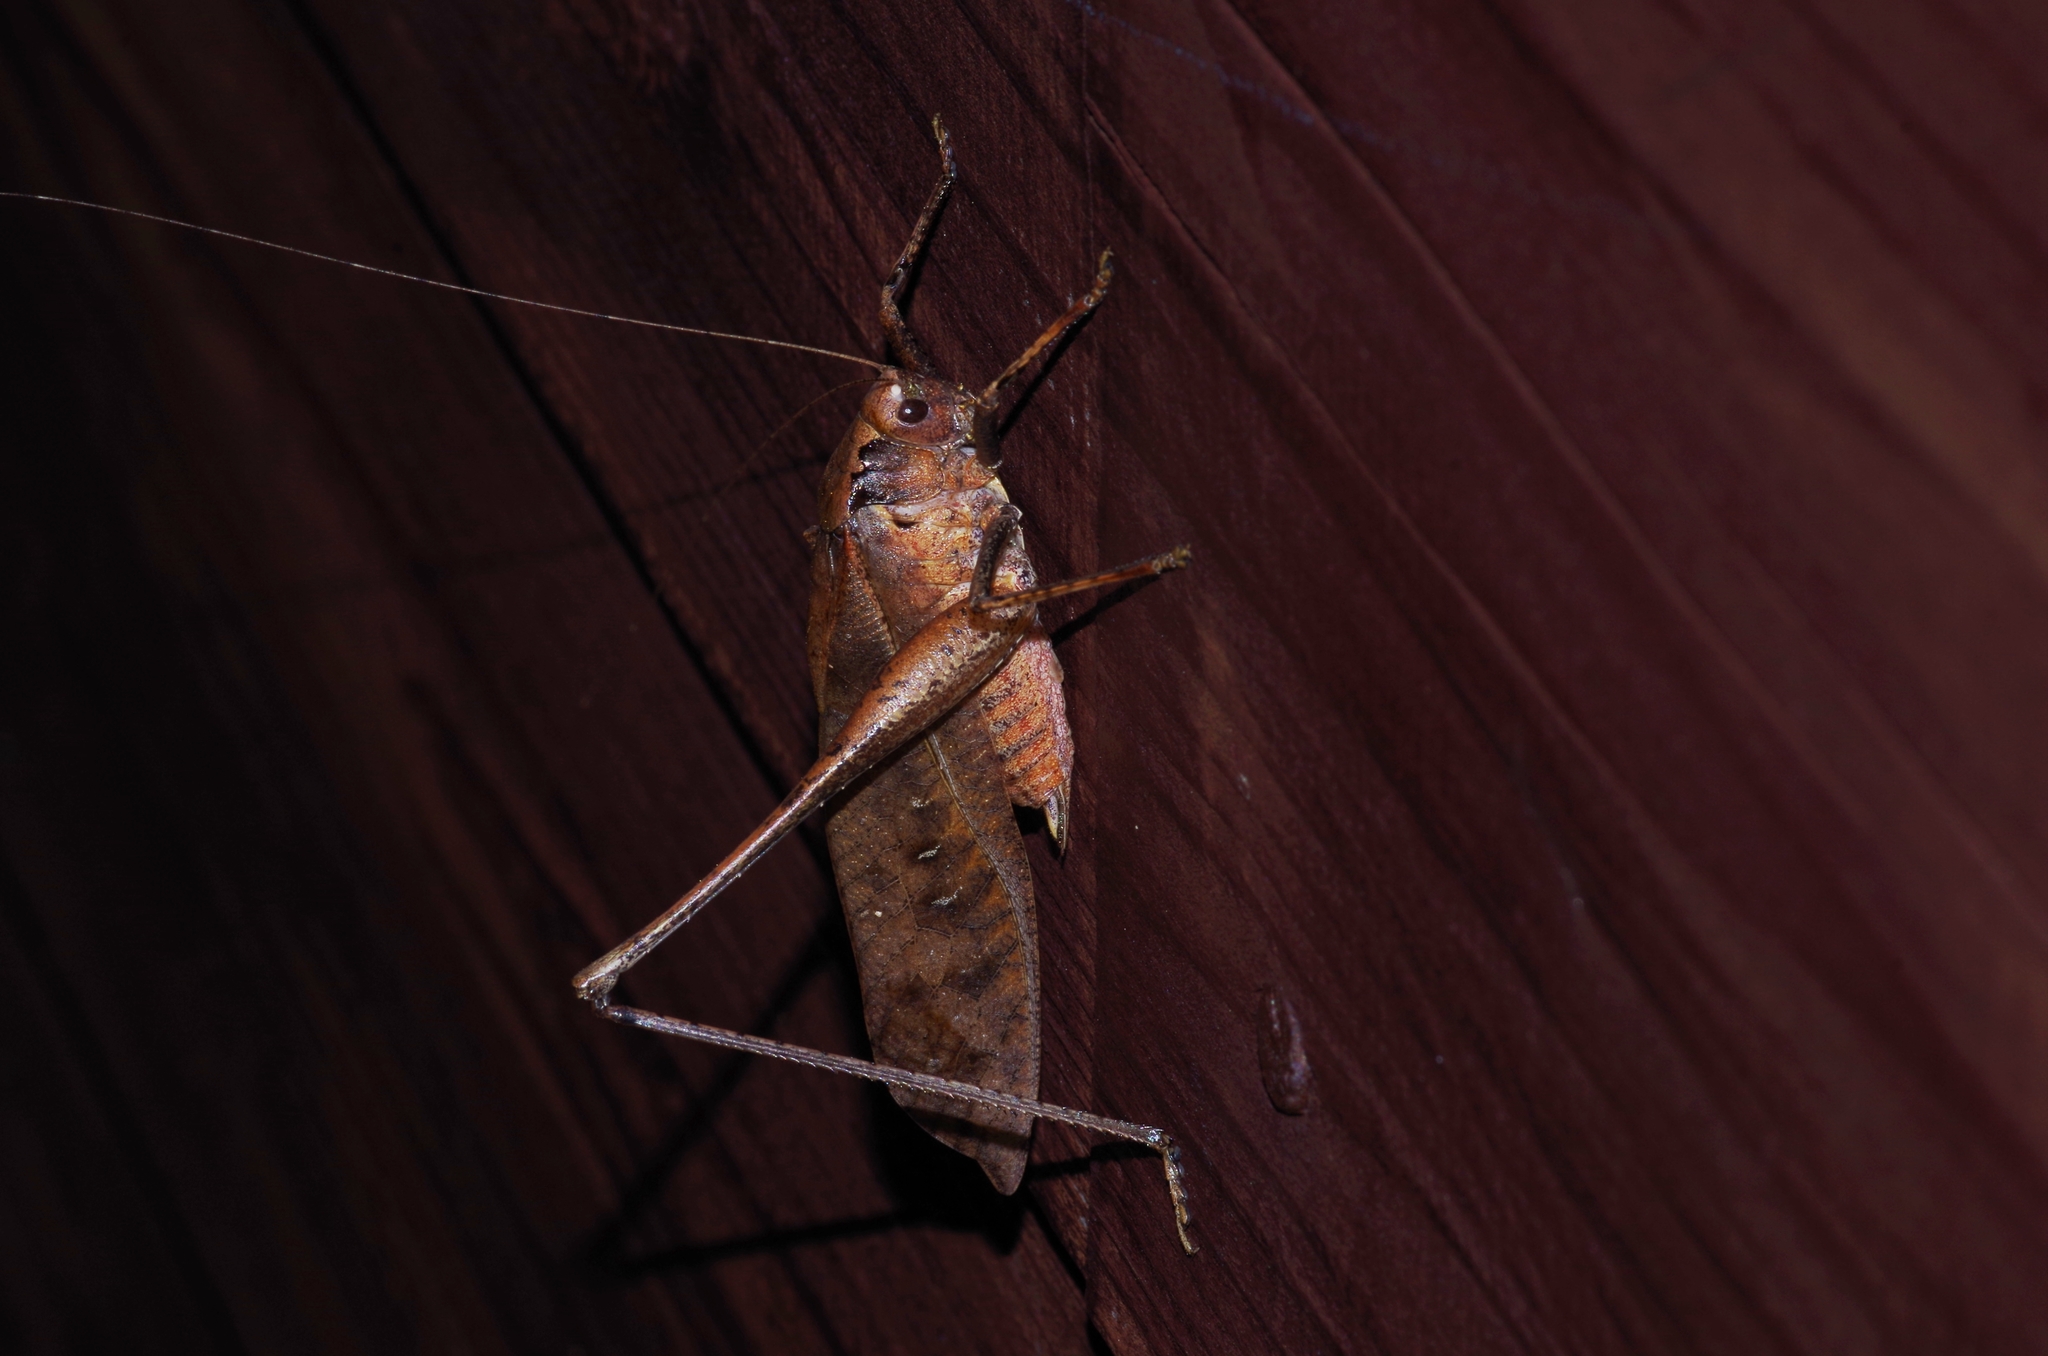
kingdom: Animalia
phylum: Arthropoda
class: Insecta
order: Orthoptera
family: Tettigoniidae
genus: Mecopoda
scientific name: Mecopoda elongata
